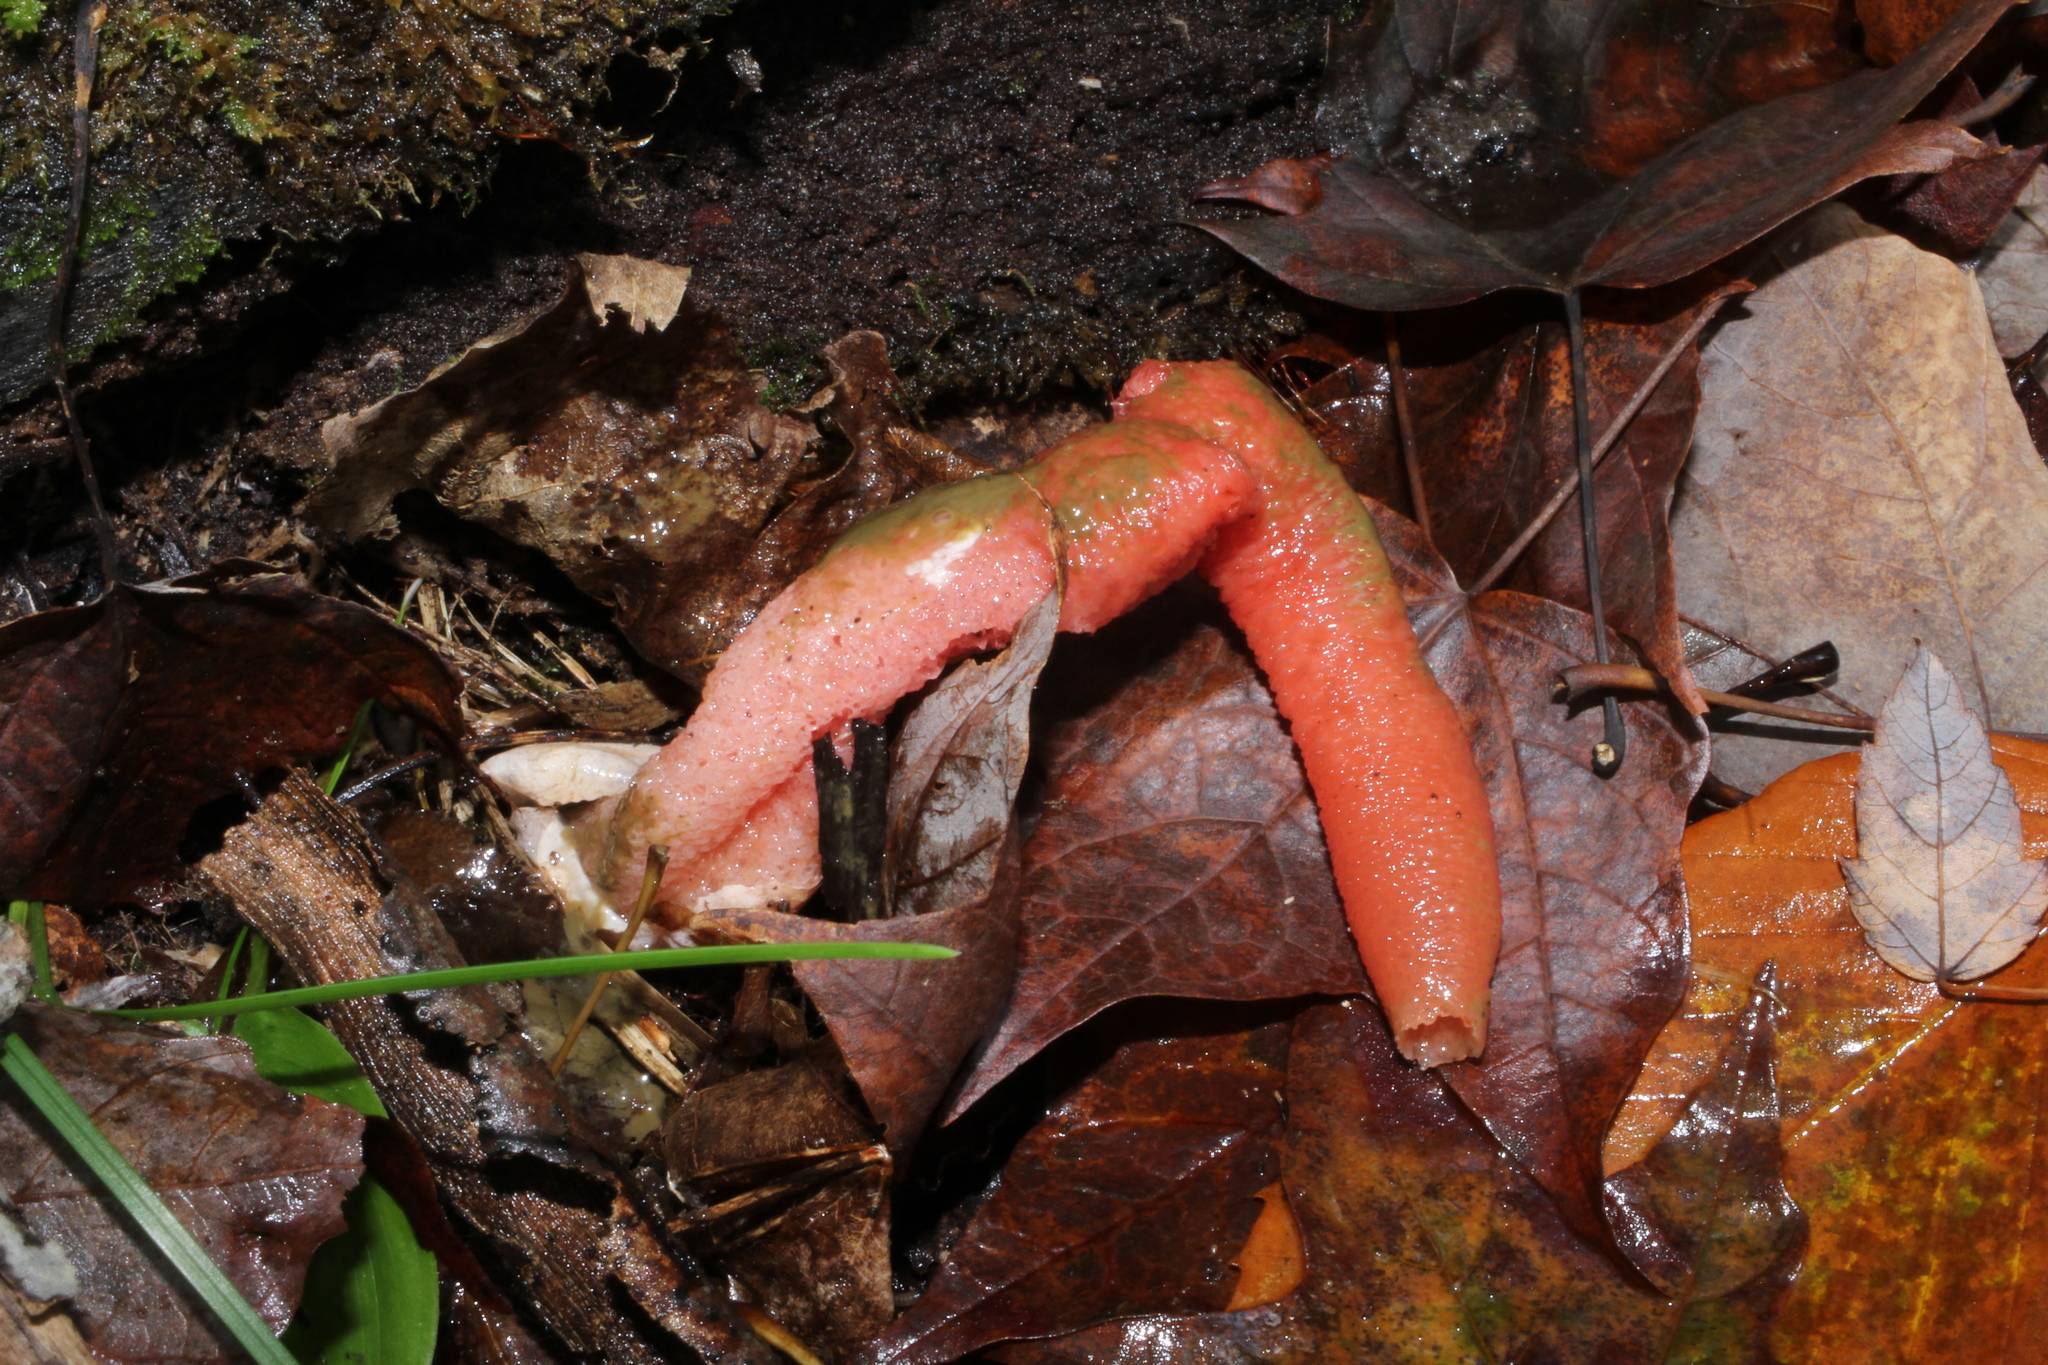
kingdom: Fungi
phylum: Basidiomycota
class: Agaricomycetes
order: Phallales
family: Phallaceae
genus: Mutinus
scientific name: Mutinus elegans
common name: Devil's dipstick
